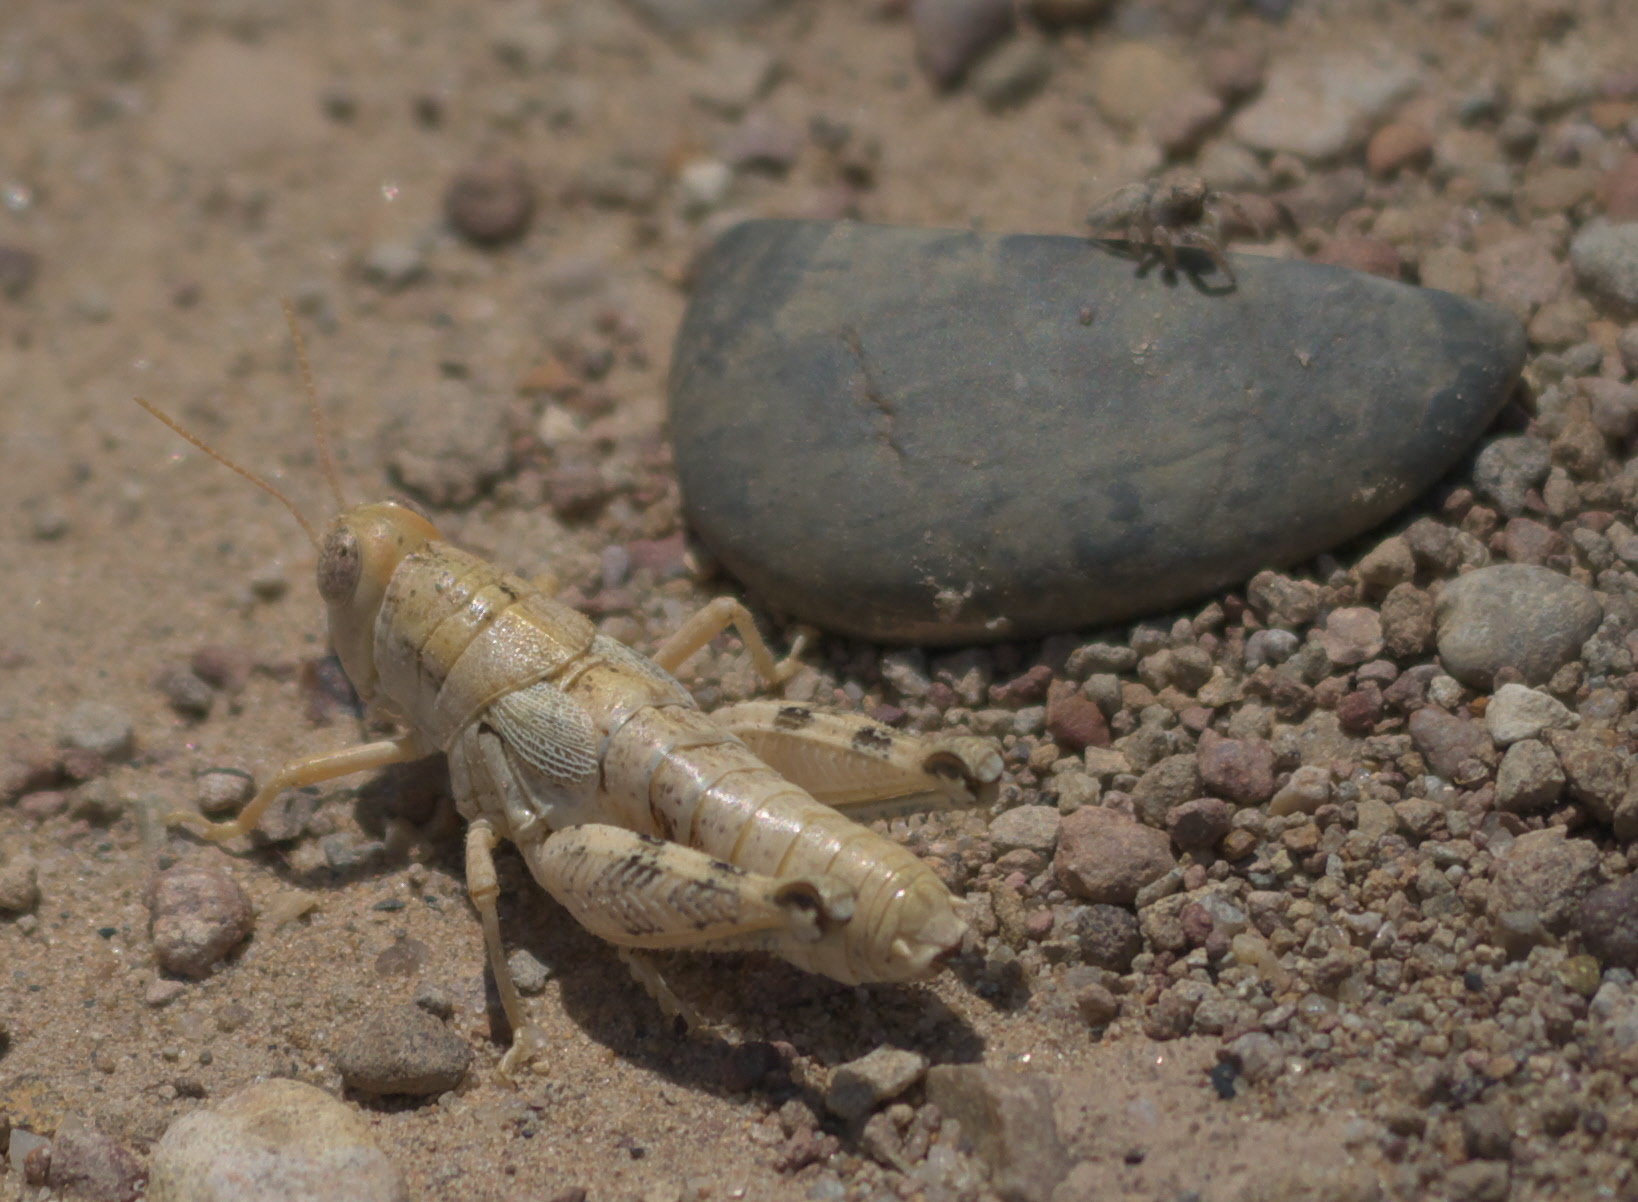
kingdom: Animalia
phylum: Arthropoda
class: Insecta
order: Orthoptera
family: Acrididae
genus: Aeoloplides
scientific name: Aeoloplides chenopodii
